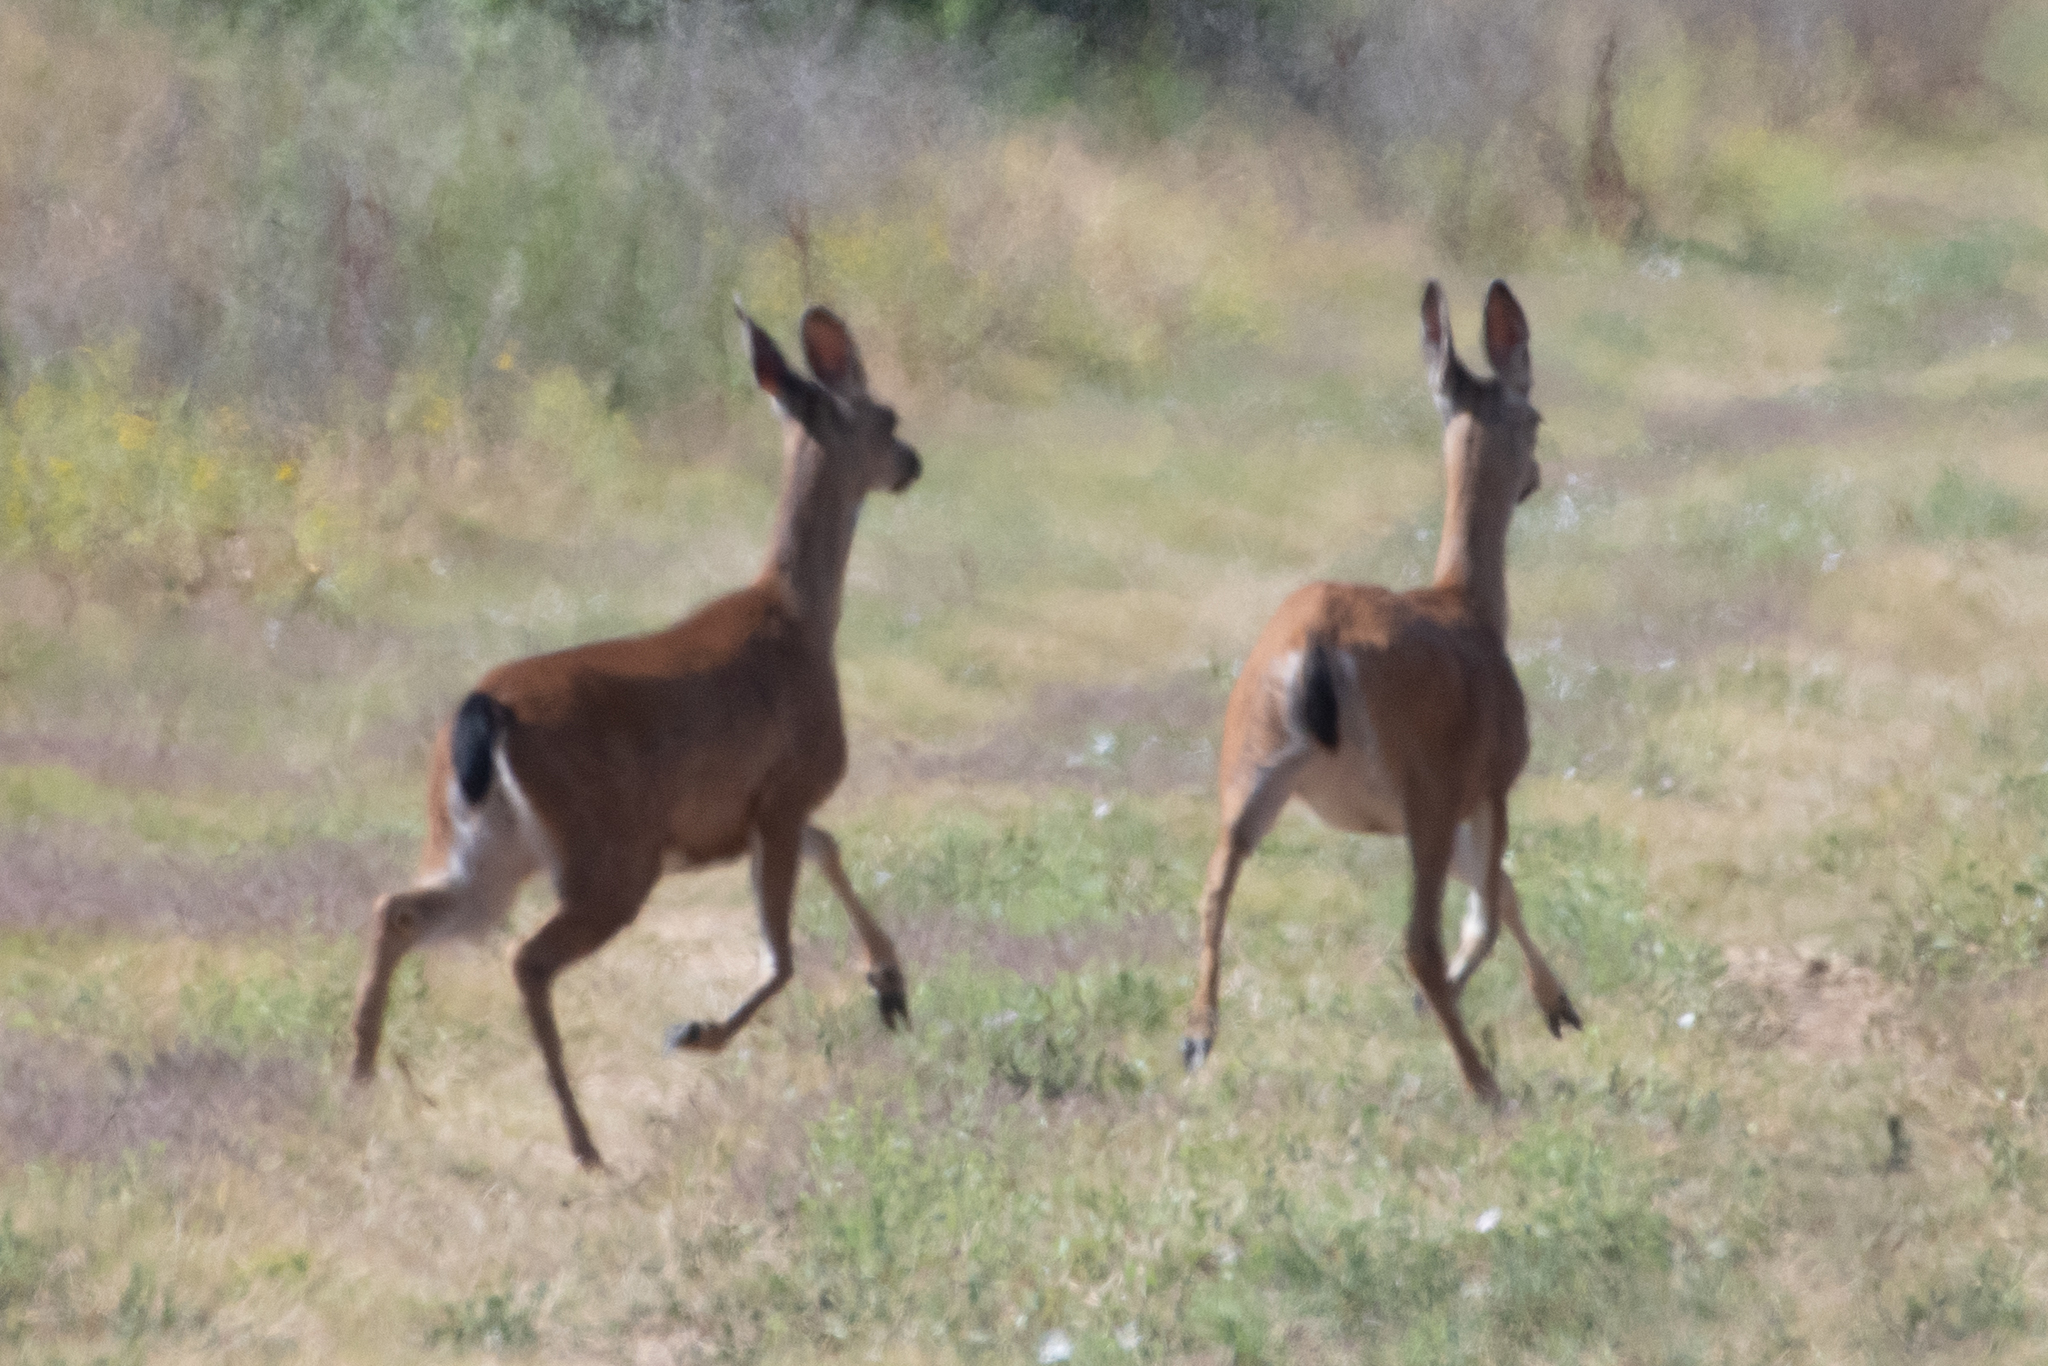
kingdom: Animalia
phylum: Chordata
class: Mammalia
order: Artiodactyla
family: Cervidae
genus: Odocoileus
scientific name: Odocoileus hemionus
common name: Mule deer
